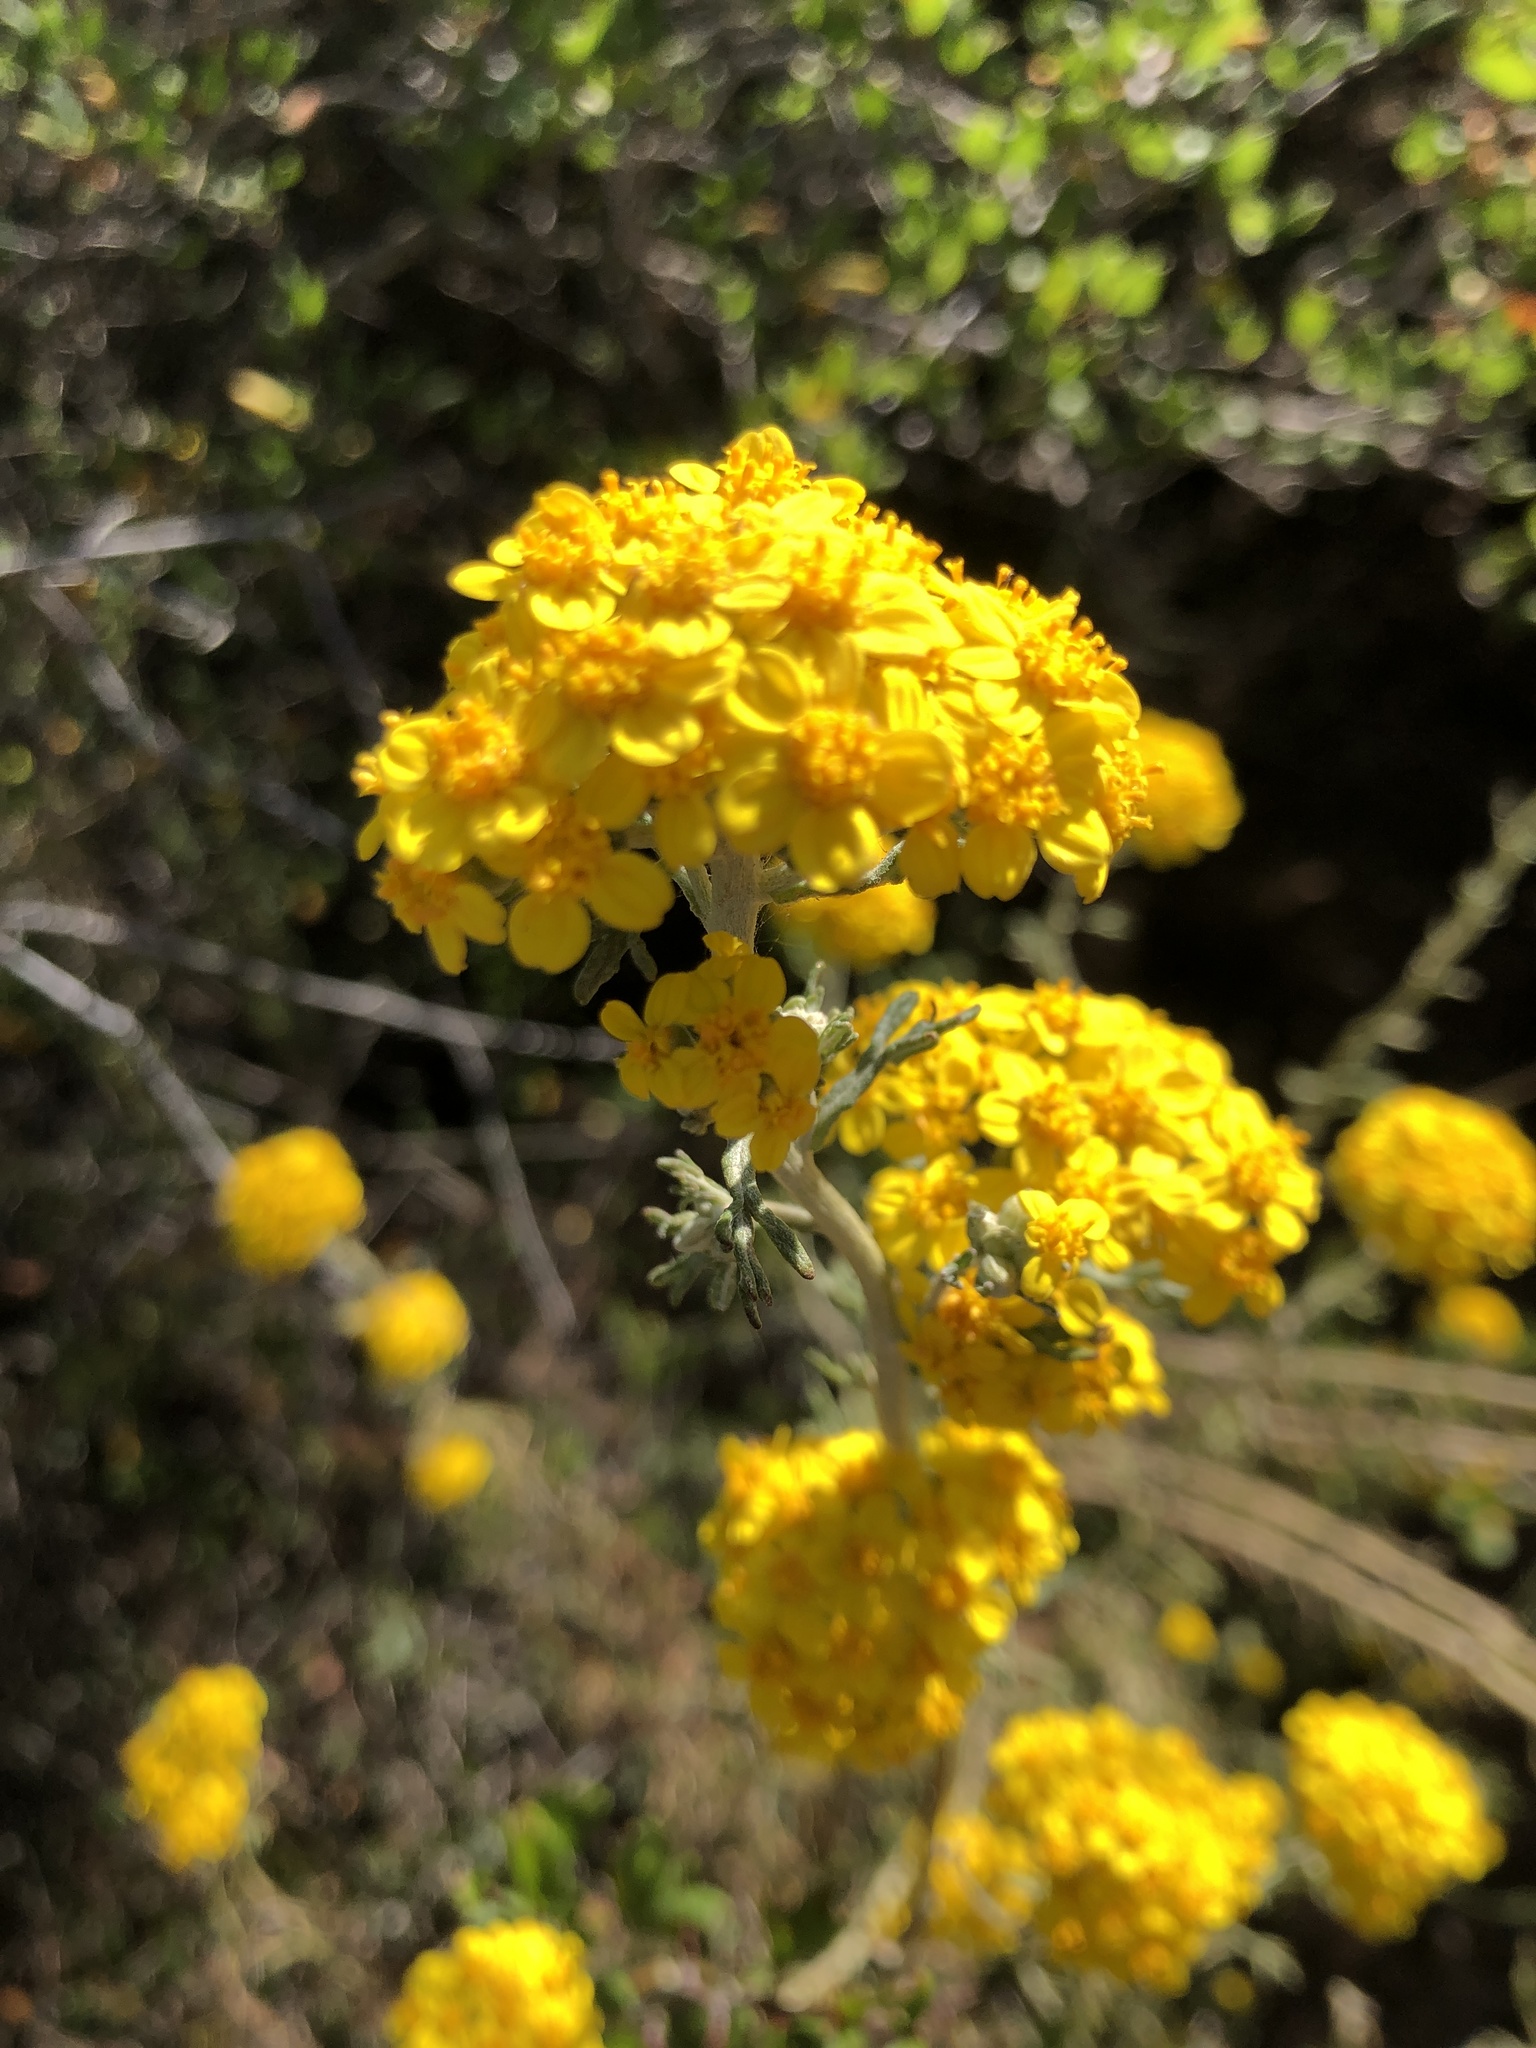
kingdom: Plantae
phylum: Tracheophyta
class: Magnoliopsida
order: Asterales
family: Asteraceae
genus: Eriophyllum
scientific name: Eriophyllum confertiflorum
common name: Golden-yarrow
